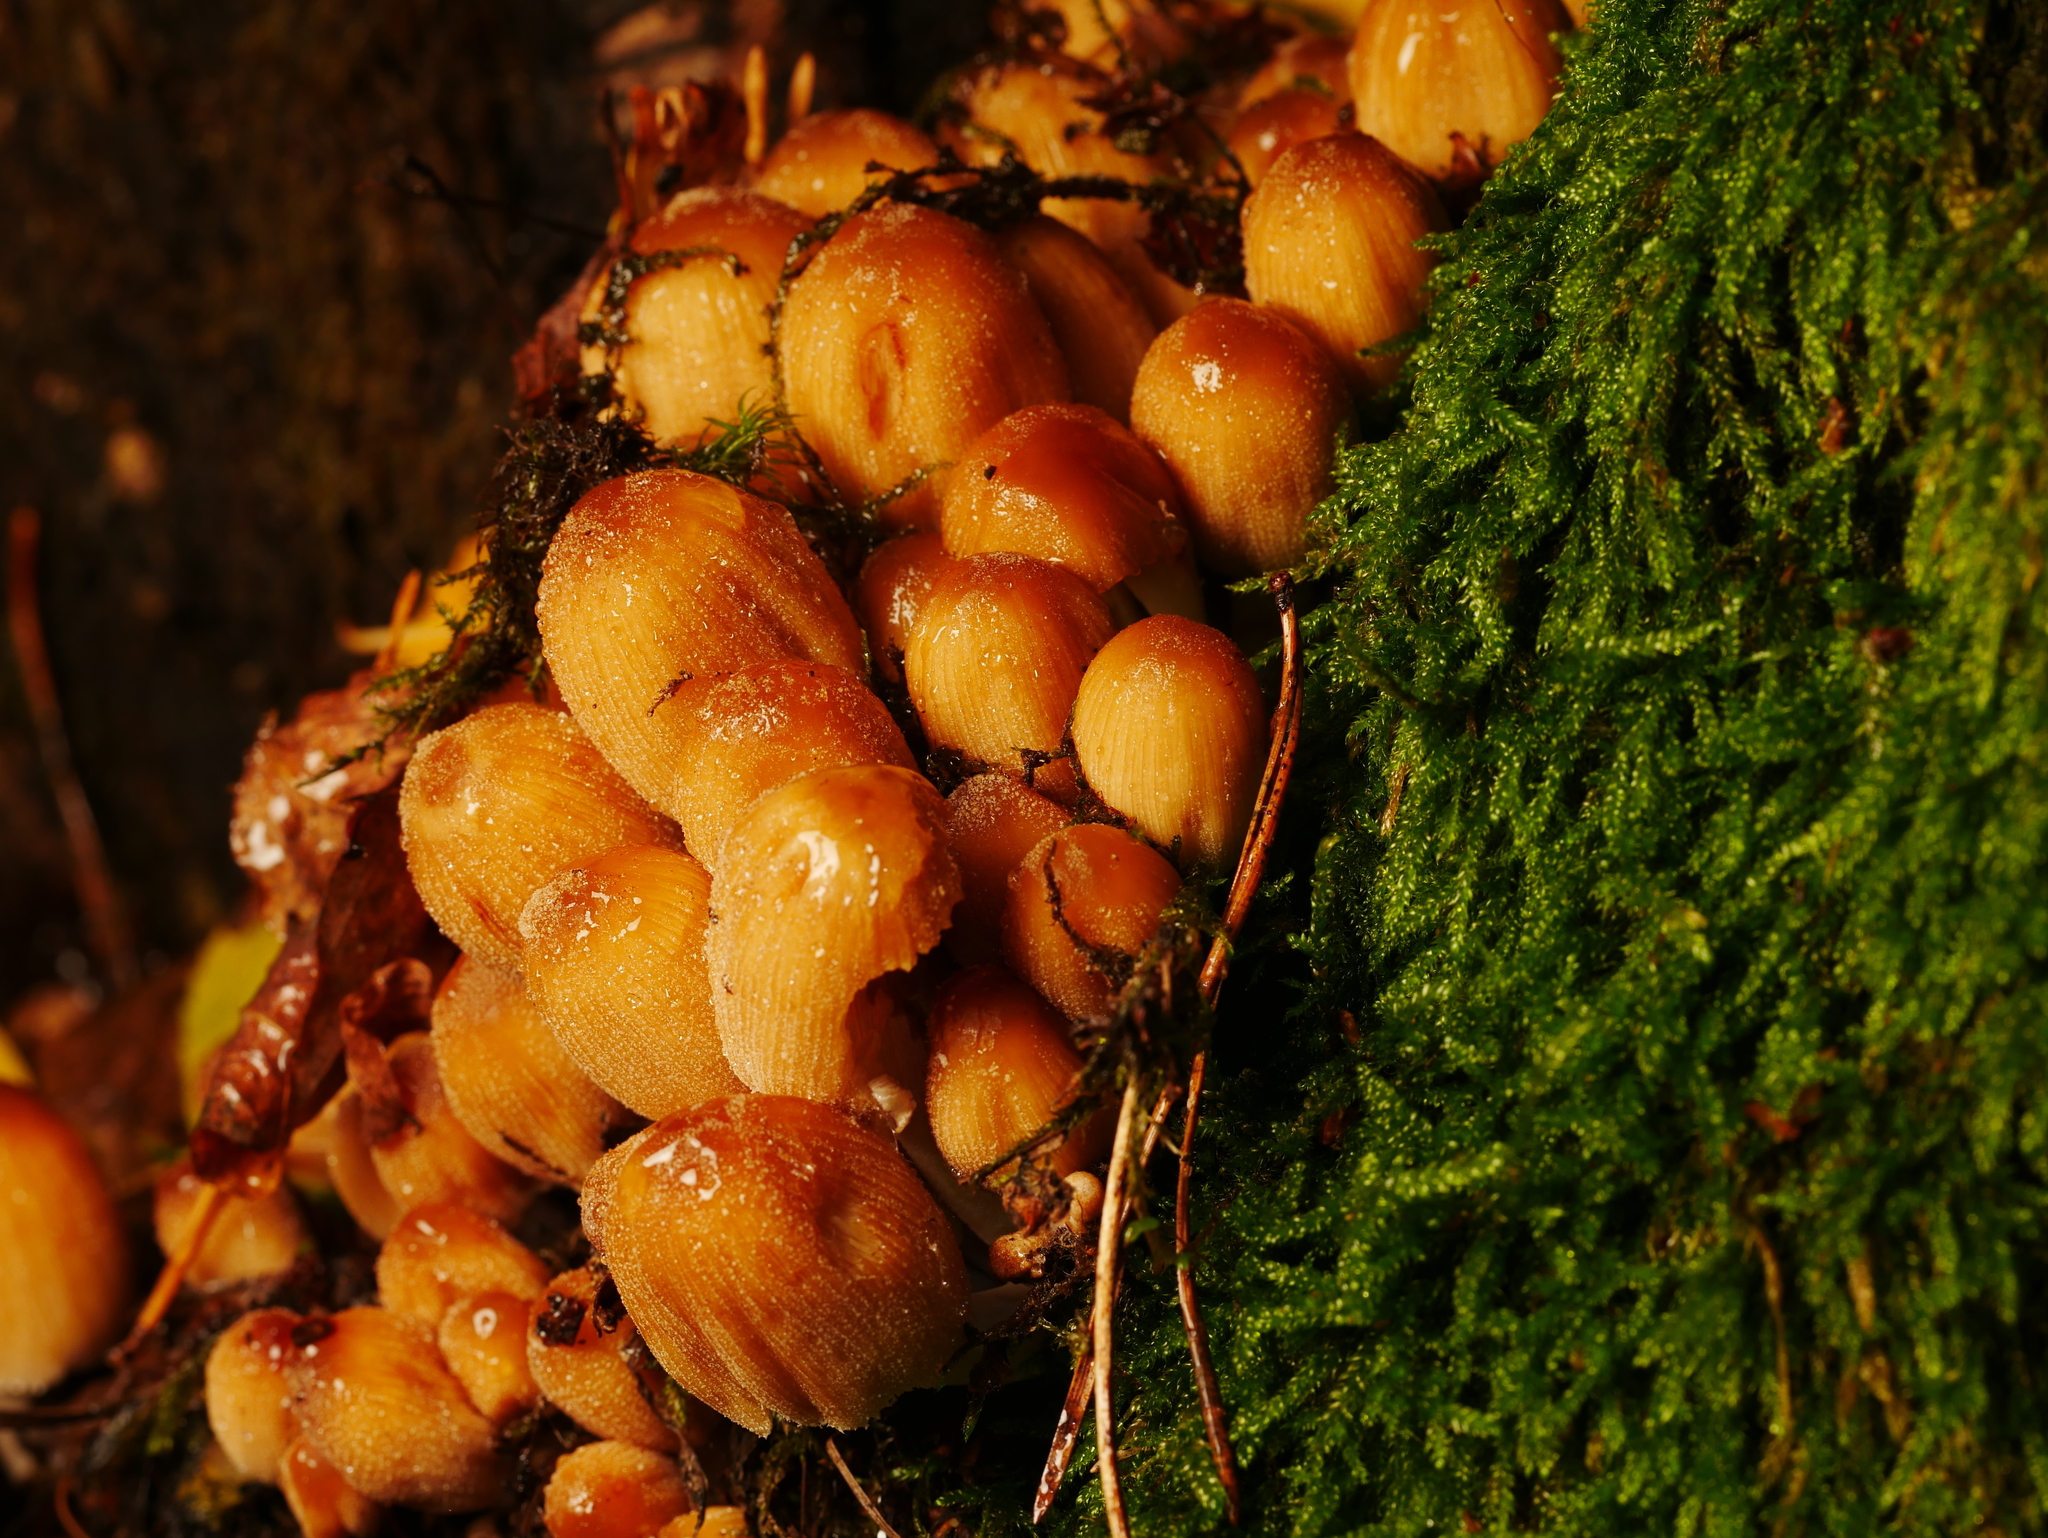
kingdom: Fungi
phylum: Basidiomycota
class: Agaricomycetes
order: Agaricales
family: Psathyrellaceae
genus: Coprinellus
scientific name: Coprinellus micaceus
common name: Glistening ink-cap
